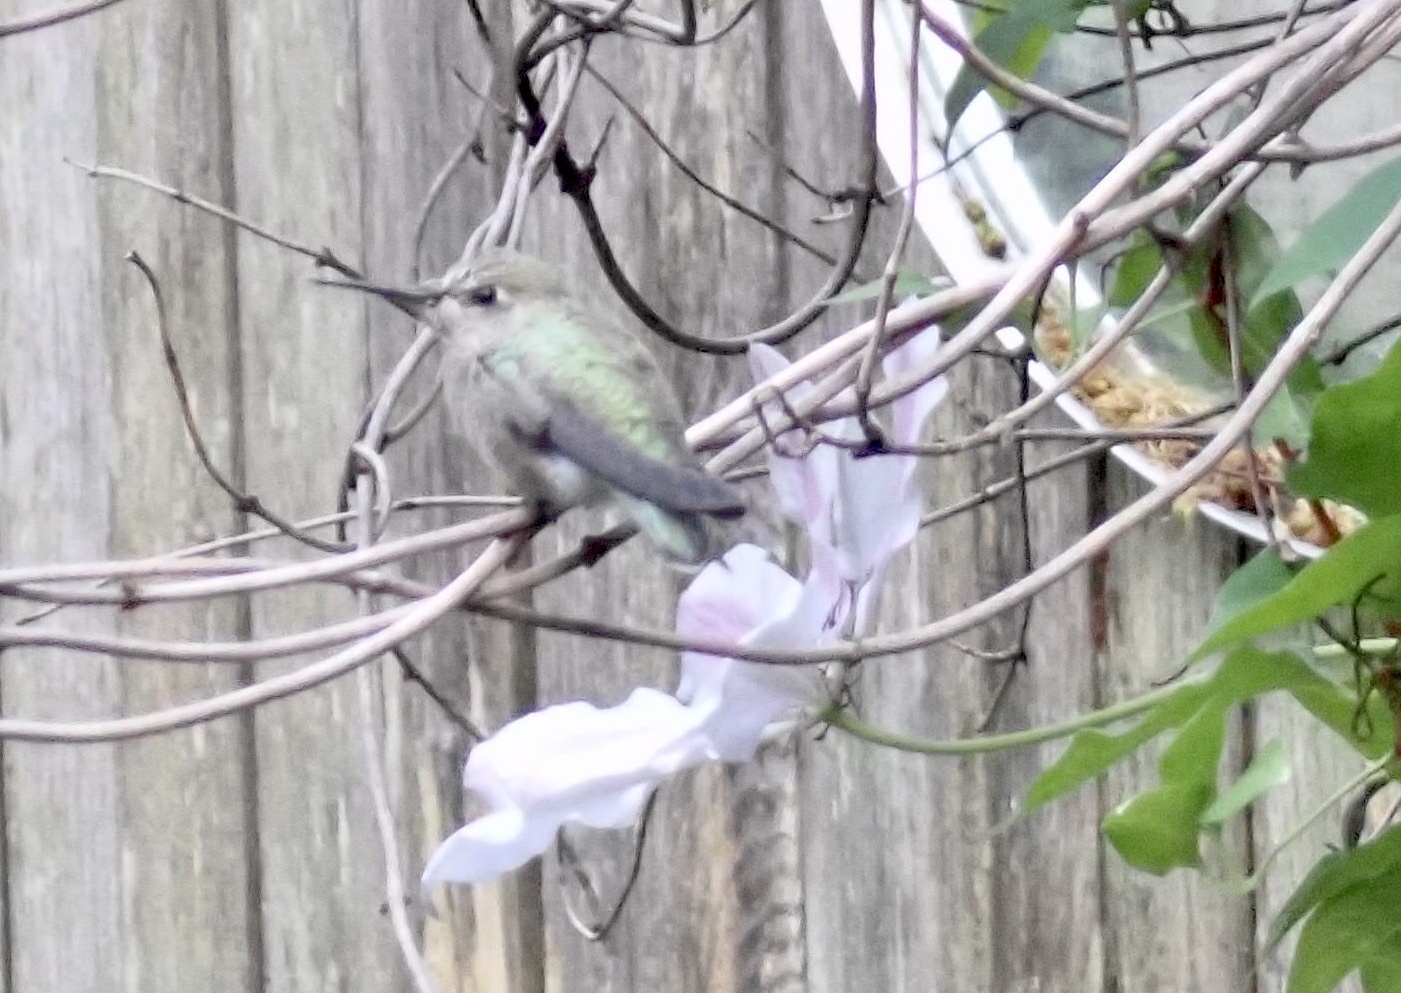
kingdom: Animalia
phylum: Chordata
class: Aves
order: Apodiformes
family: Trochilidae
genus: Calypte
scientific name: Calypte anna
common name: Anna's hummingbird
